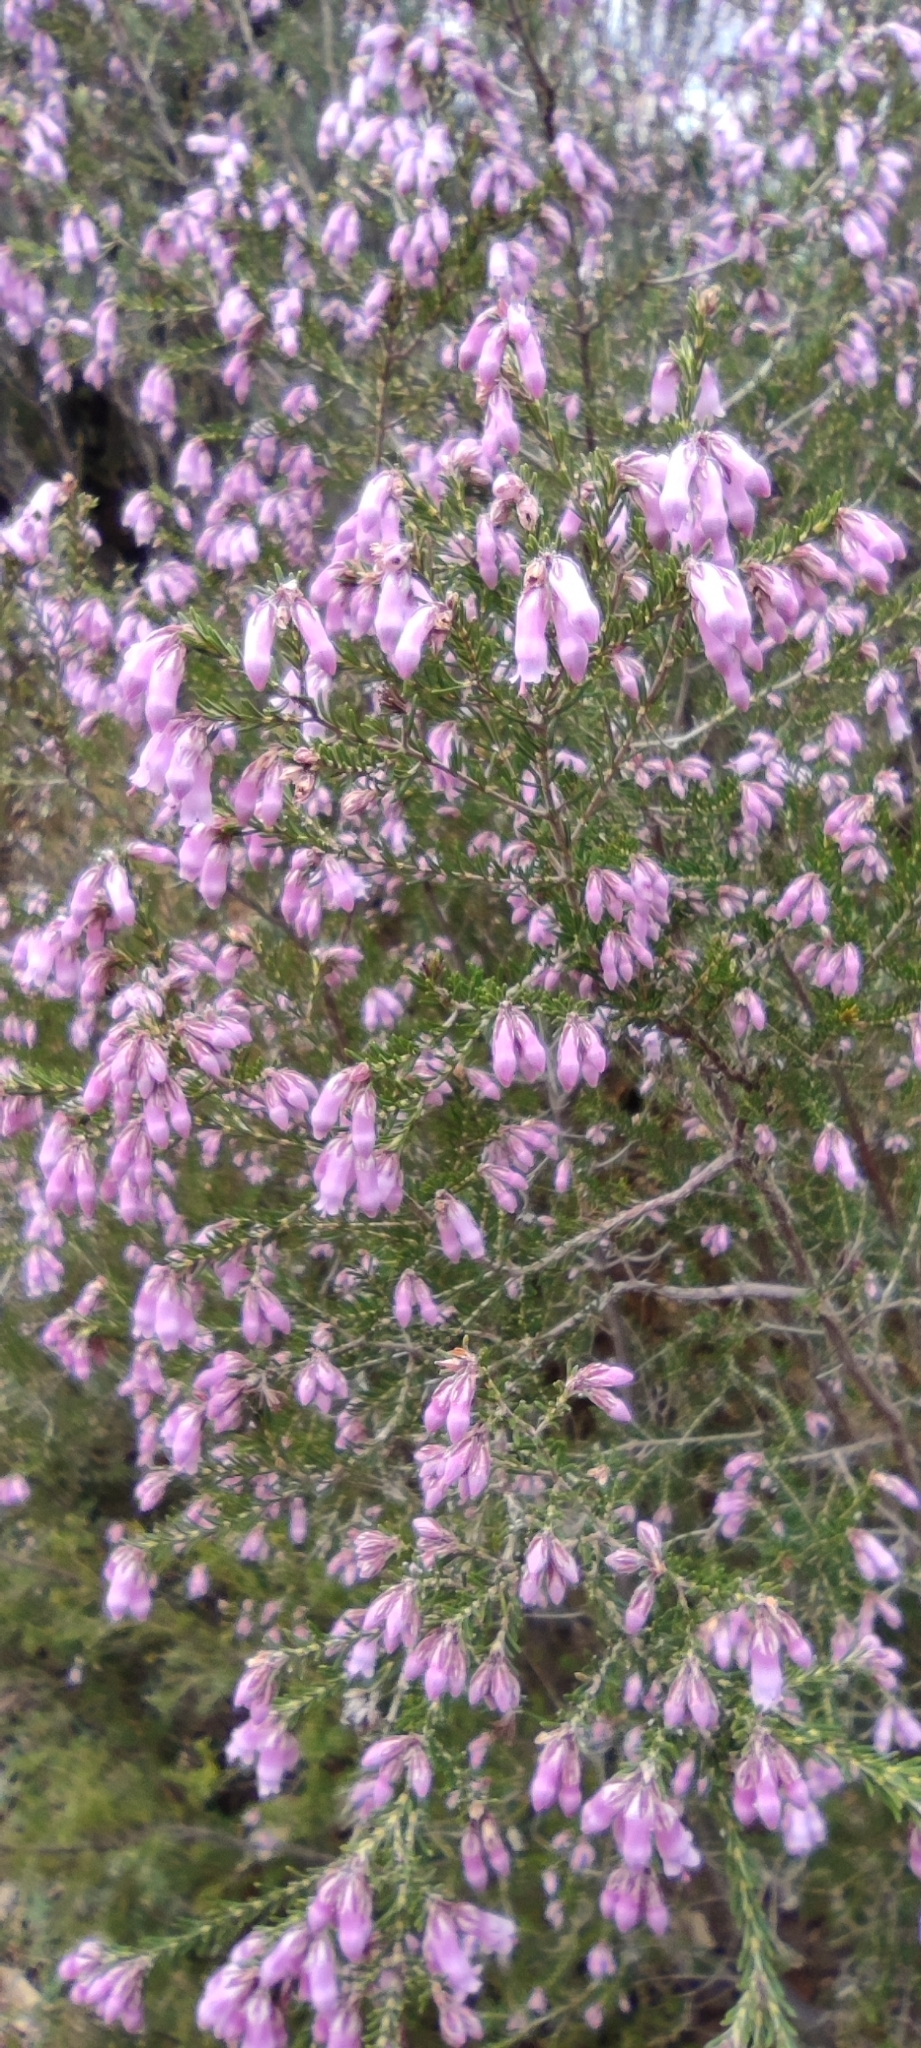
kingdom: Plantae
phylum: Tracheophyta
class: Magnoliopsida
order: Ericales
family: Ericaceae
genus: Erica
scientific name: Erica australis
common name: Spanish heath
